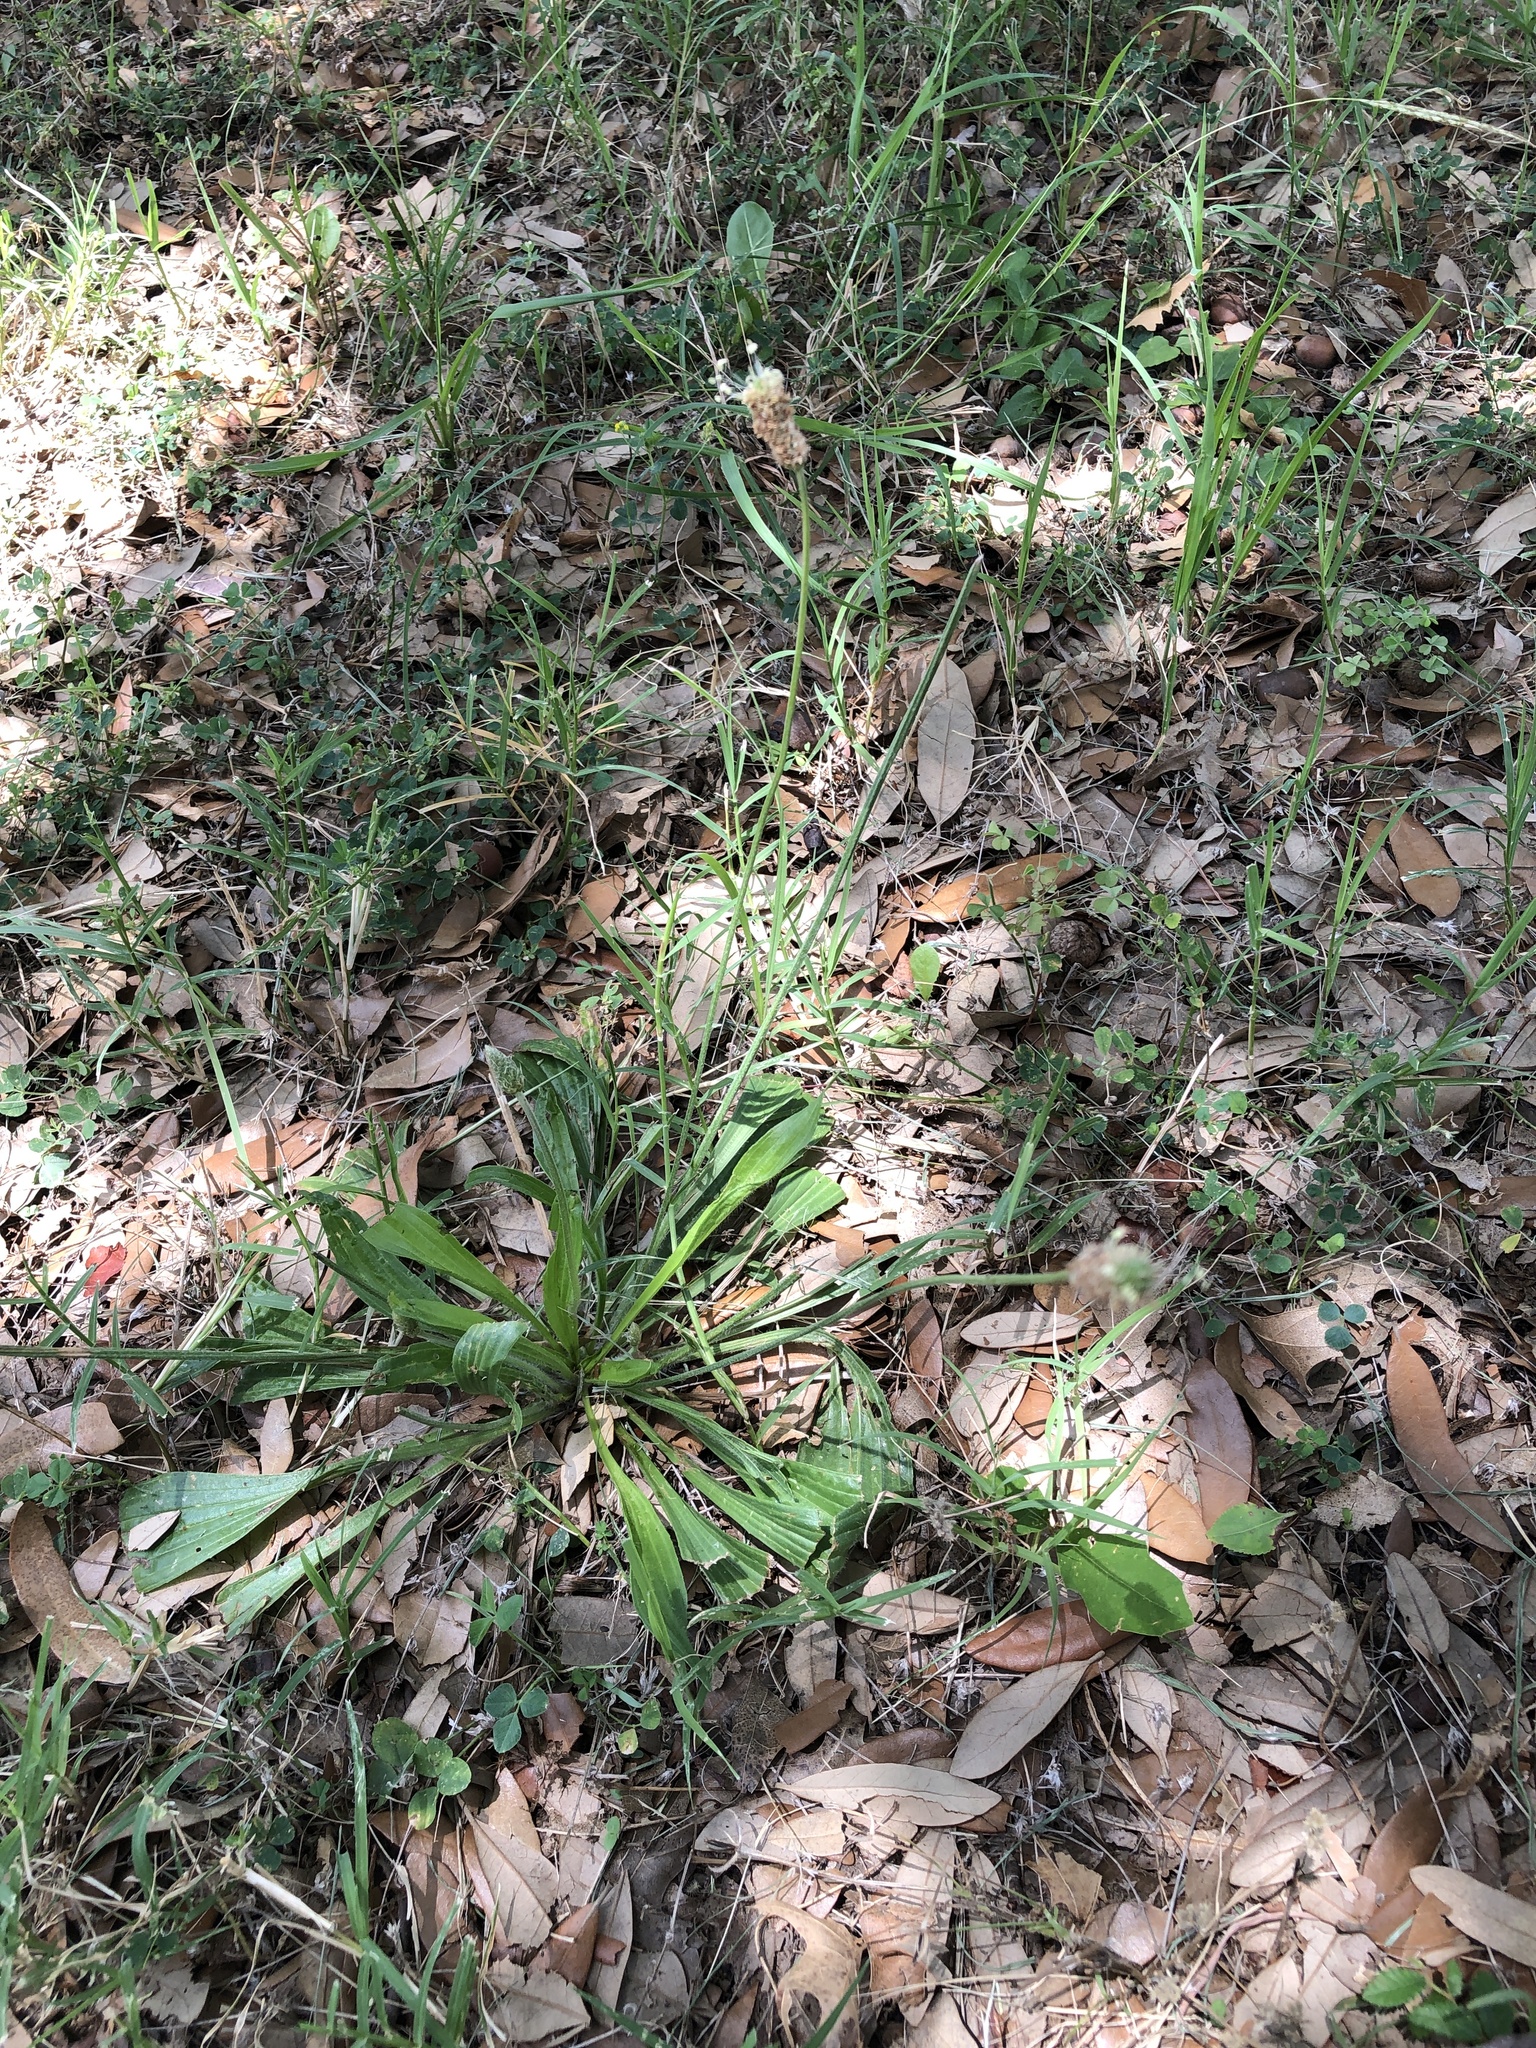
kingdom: Plantae
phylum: Tracheophyta
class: Magnoliopsida
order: Lamiales
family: Plantaginaceae
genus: Plantago
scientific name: Plantago lanceolata
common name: Ribwort plantain
